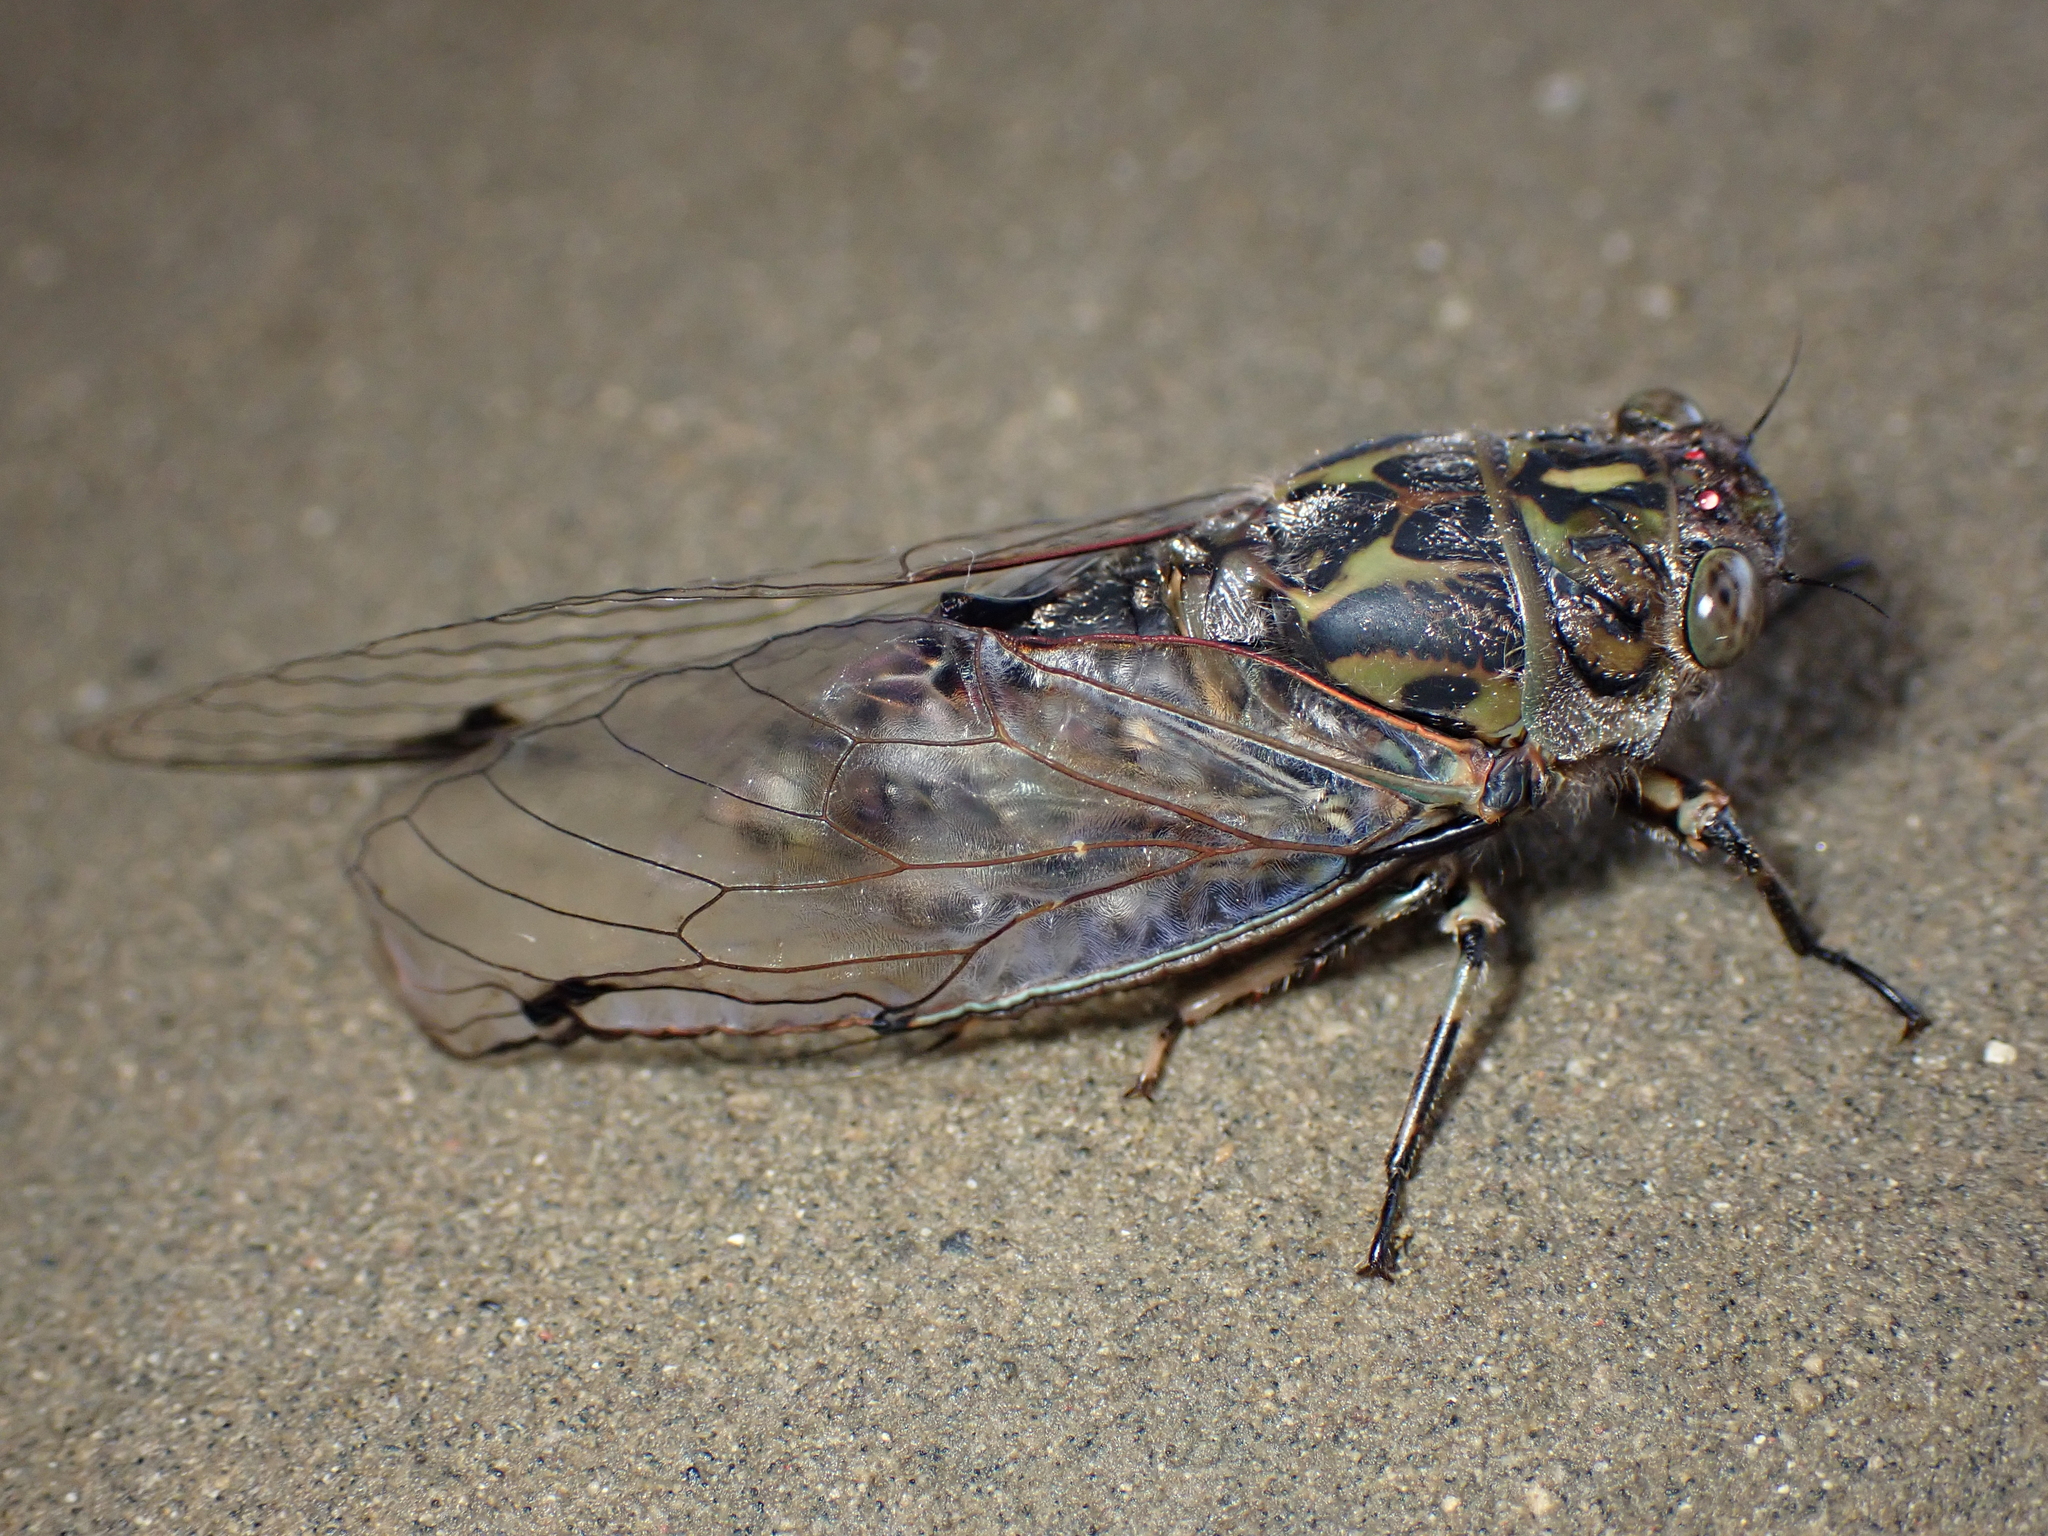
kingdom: Animalia
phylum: Arthropoda
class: Insecta
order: Hemiptera
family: Cicadidae
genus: Amphipsalta
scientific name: Amphipsalta cingulata
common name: Clapping cicada
